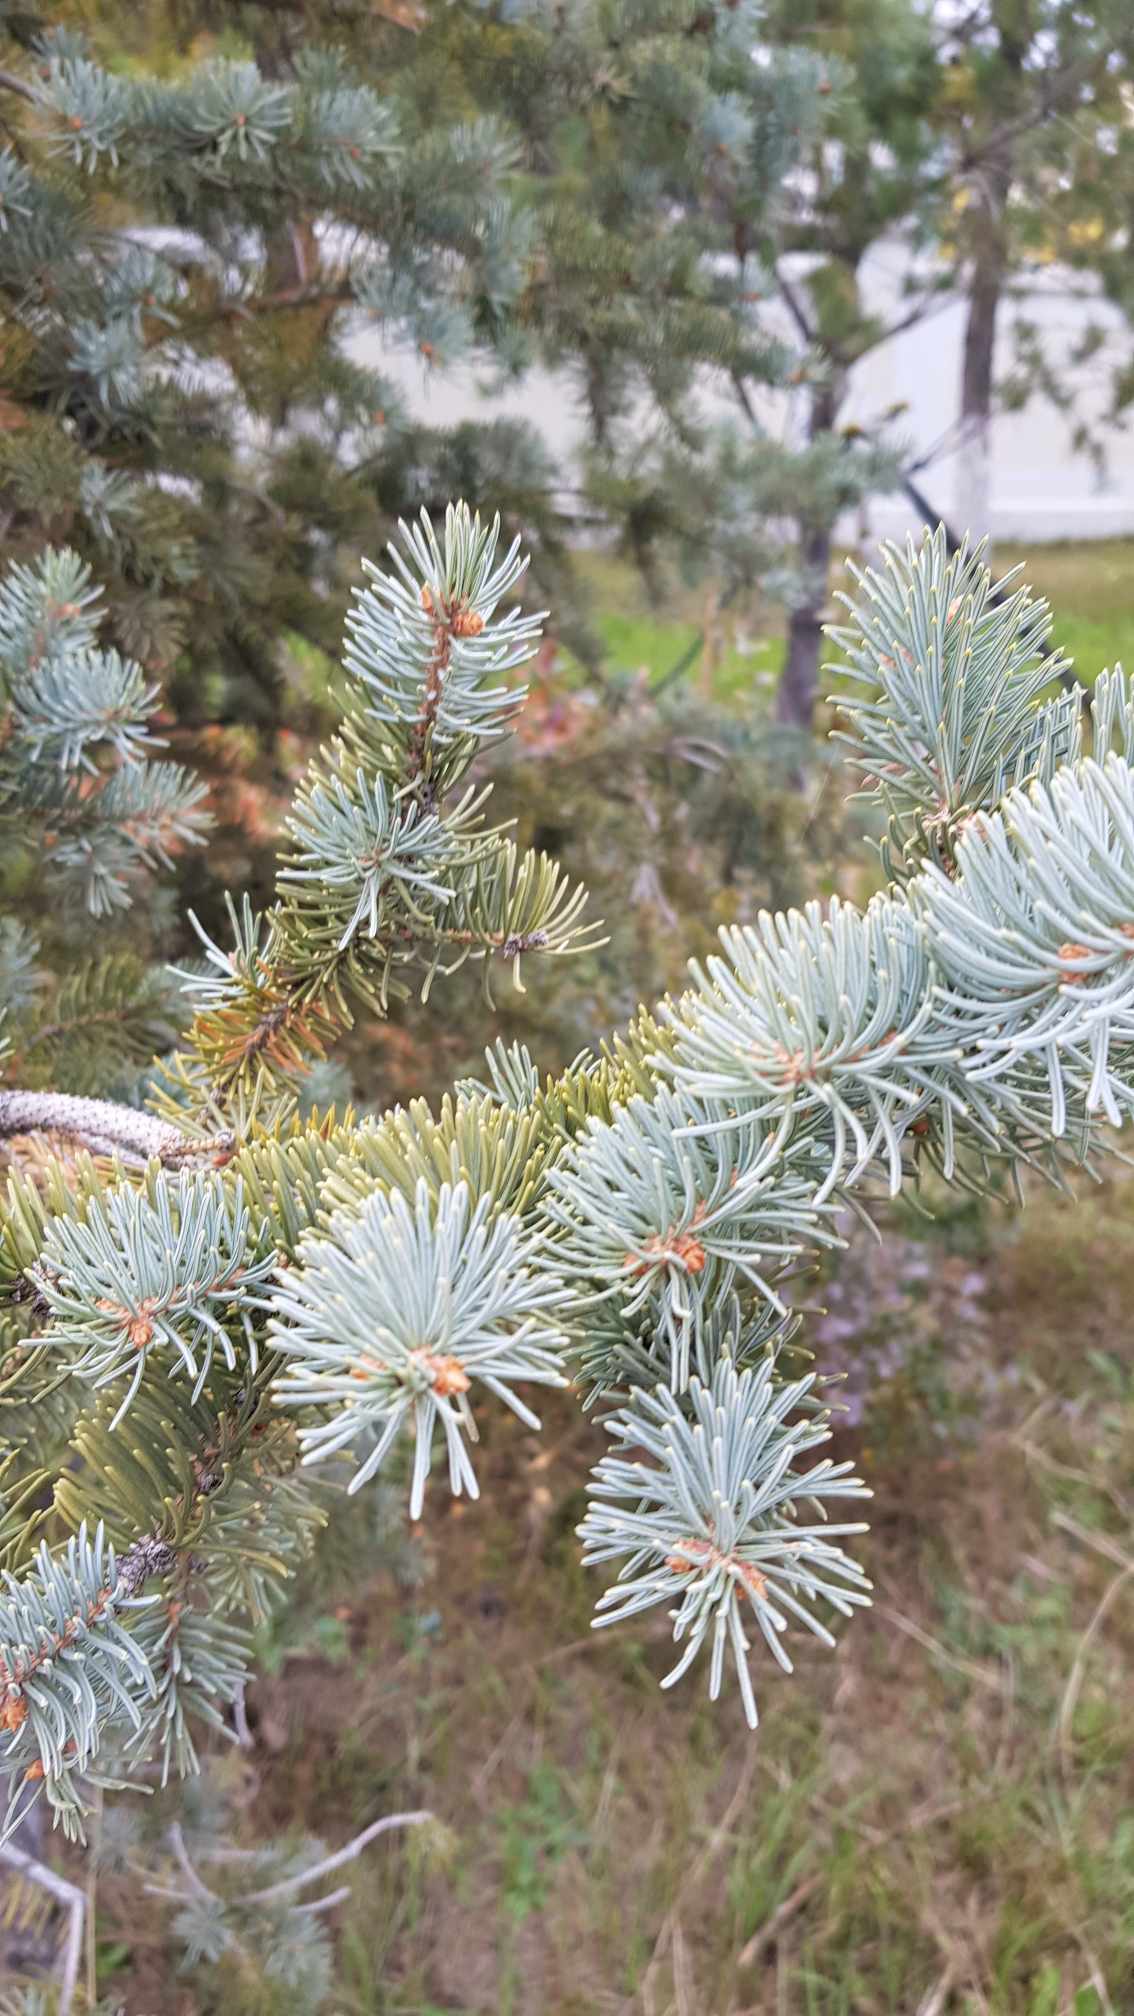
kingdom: Plantae
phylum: Tracheophyta
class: Pinopsida
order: Pinales
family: Pinaceae
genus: Picea
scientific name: Picea glauca
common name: White spruce
